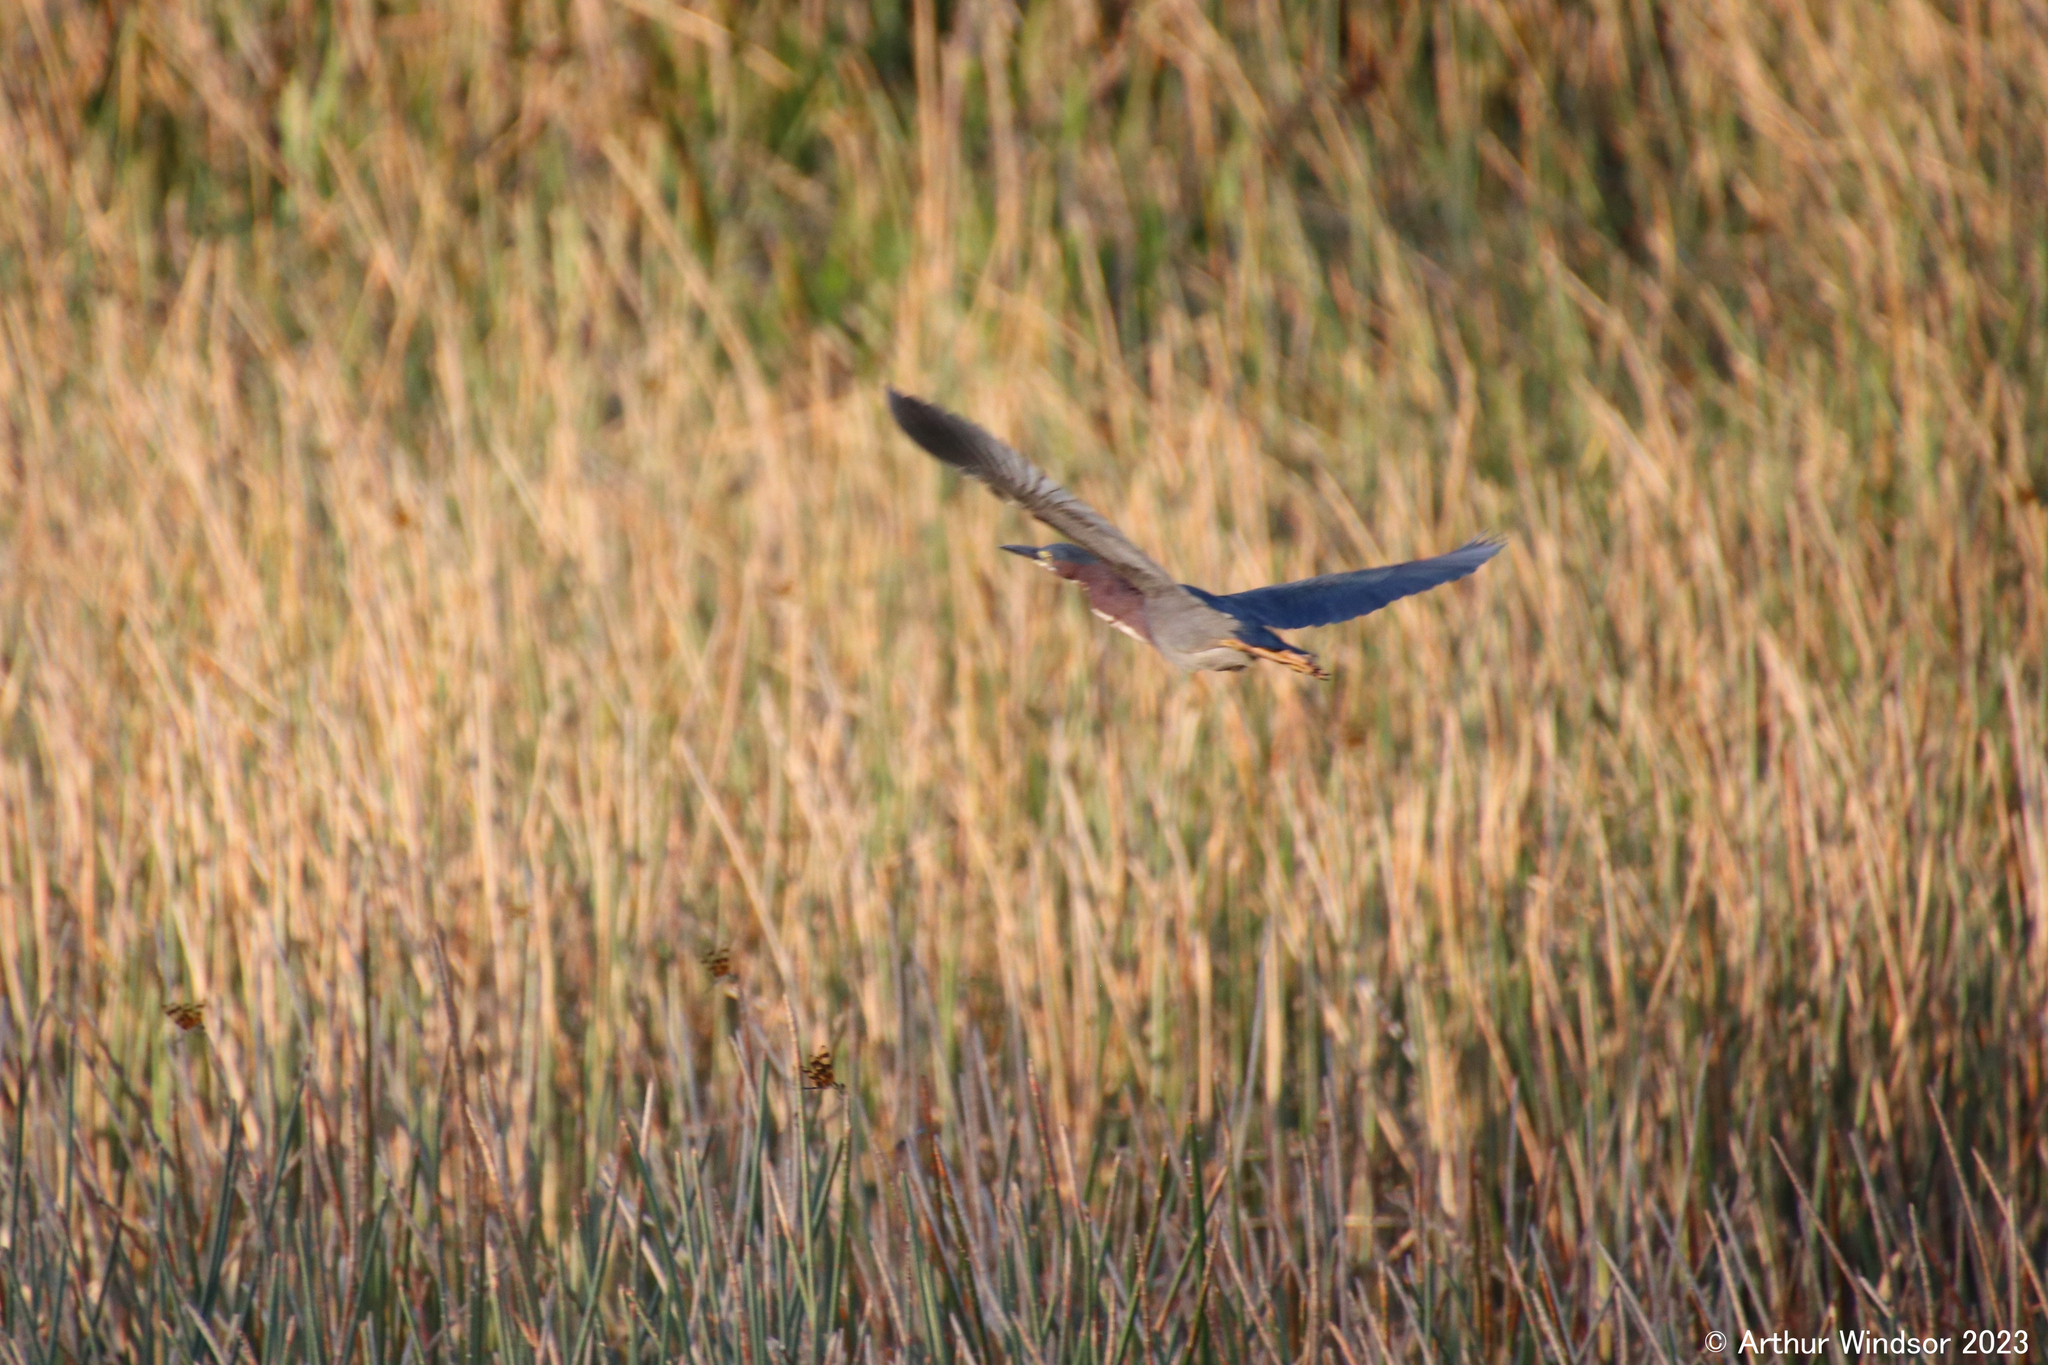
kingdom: Animalia
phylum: Chordata
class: Aves
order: Pelecaniformes
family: Ardeidae
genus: Butorides
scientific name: Butorides virescens
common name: Green heron
